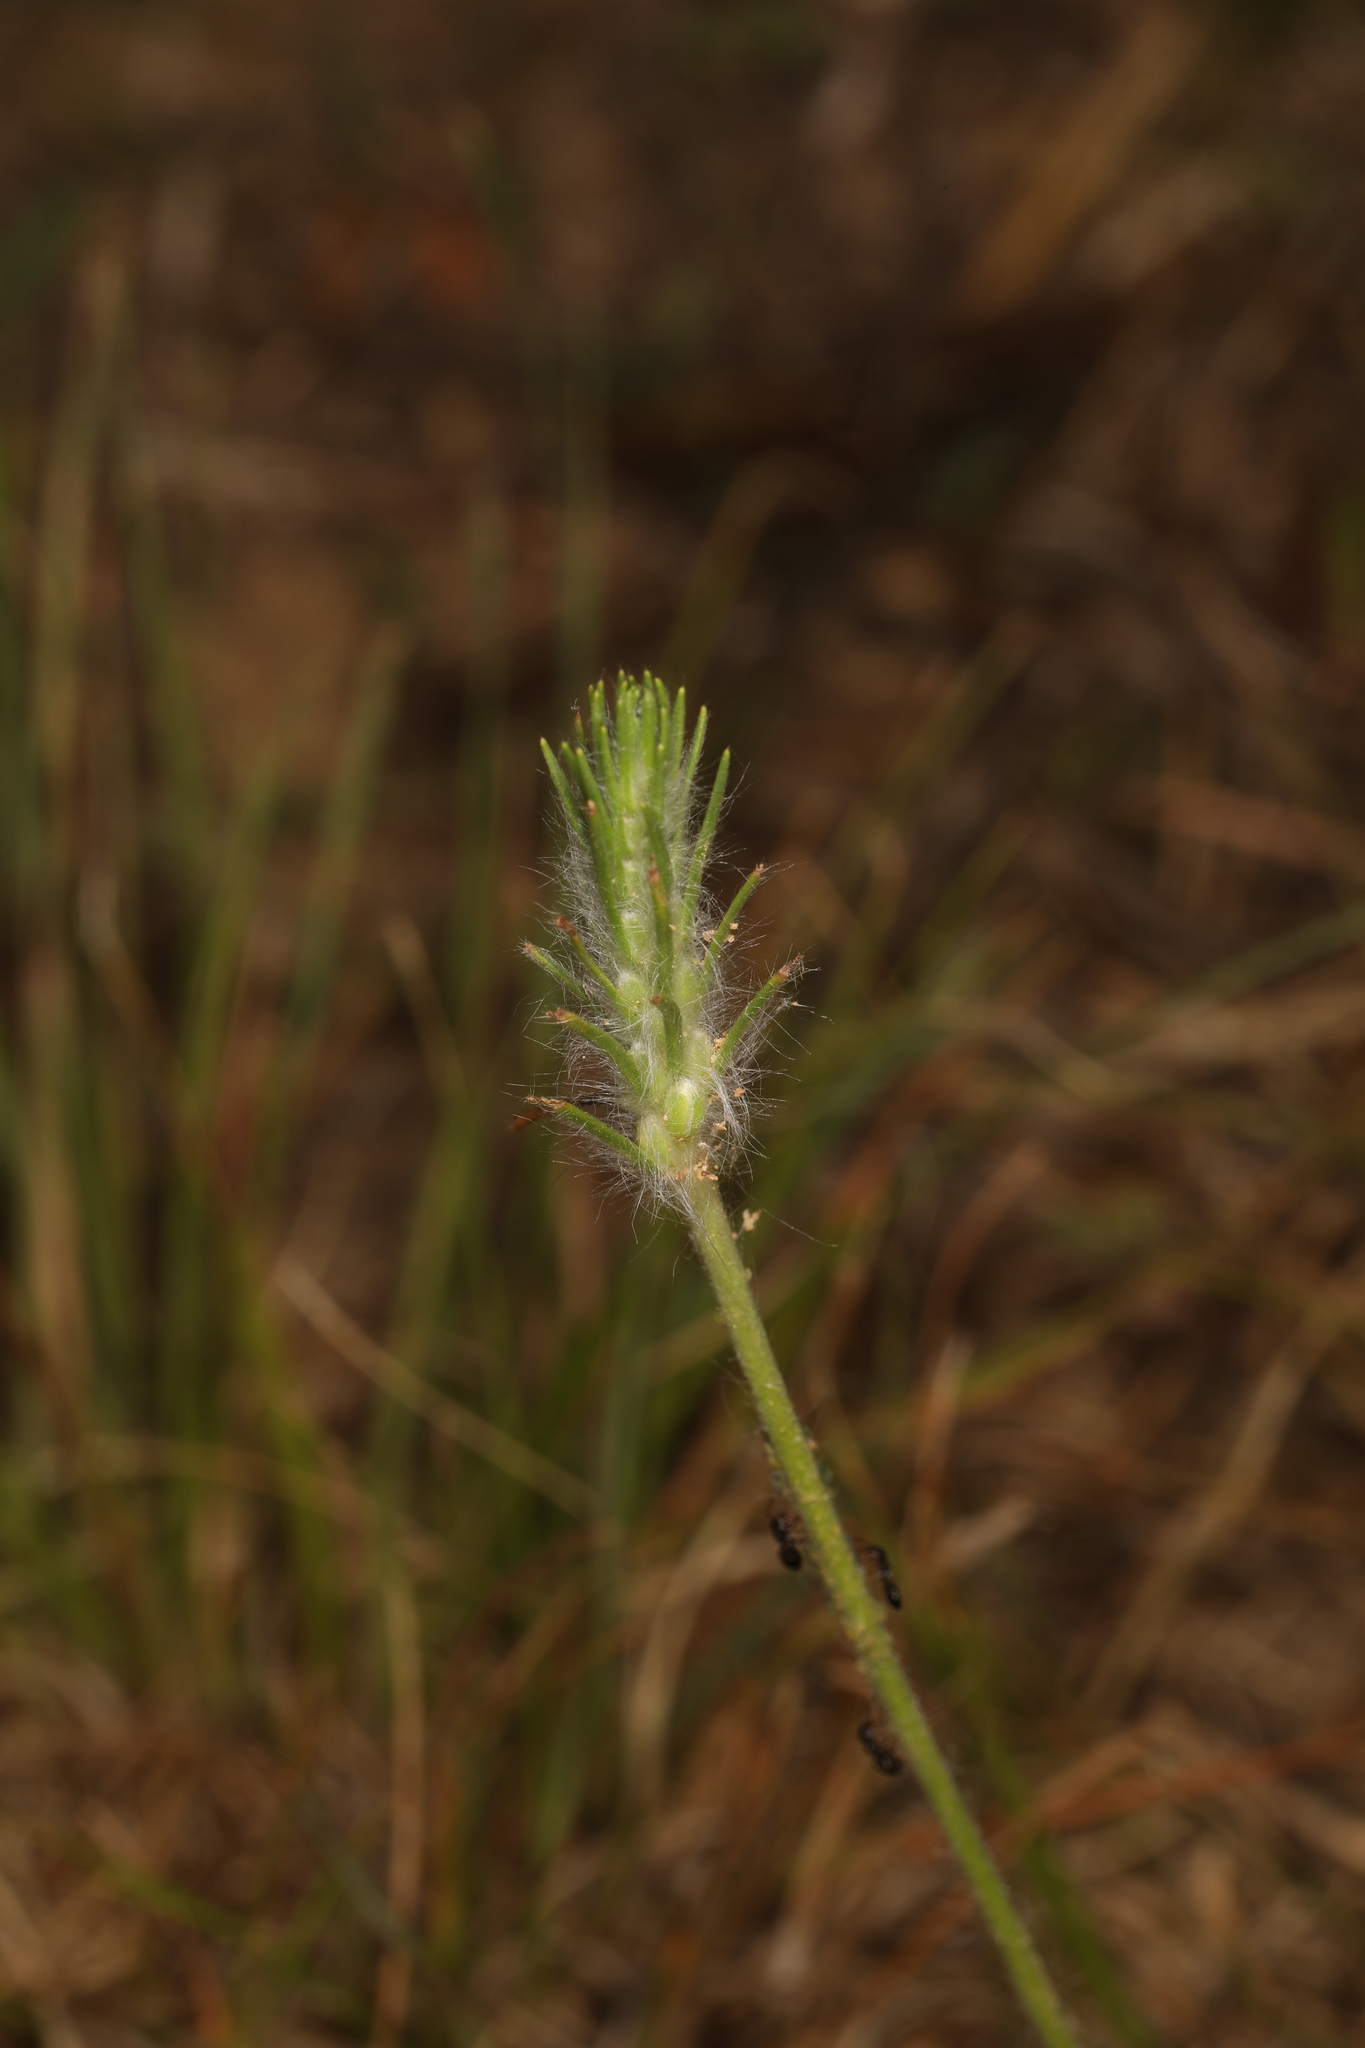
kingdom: Plantae
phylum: Tracheophyta
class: Magnoliopsida
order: Lamiales
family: Plantaginaceae
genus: Plantago
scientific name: Plantago aristata
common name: Bracted plantain
